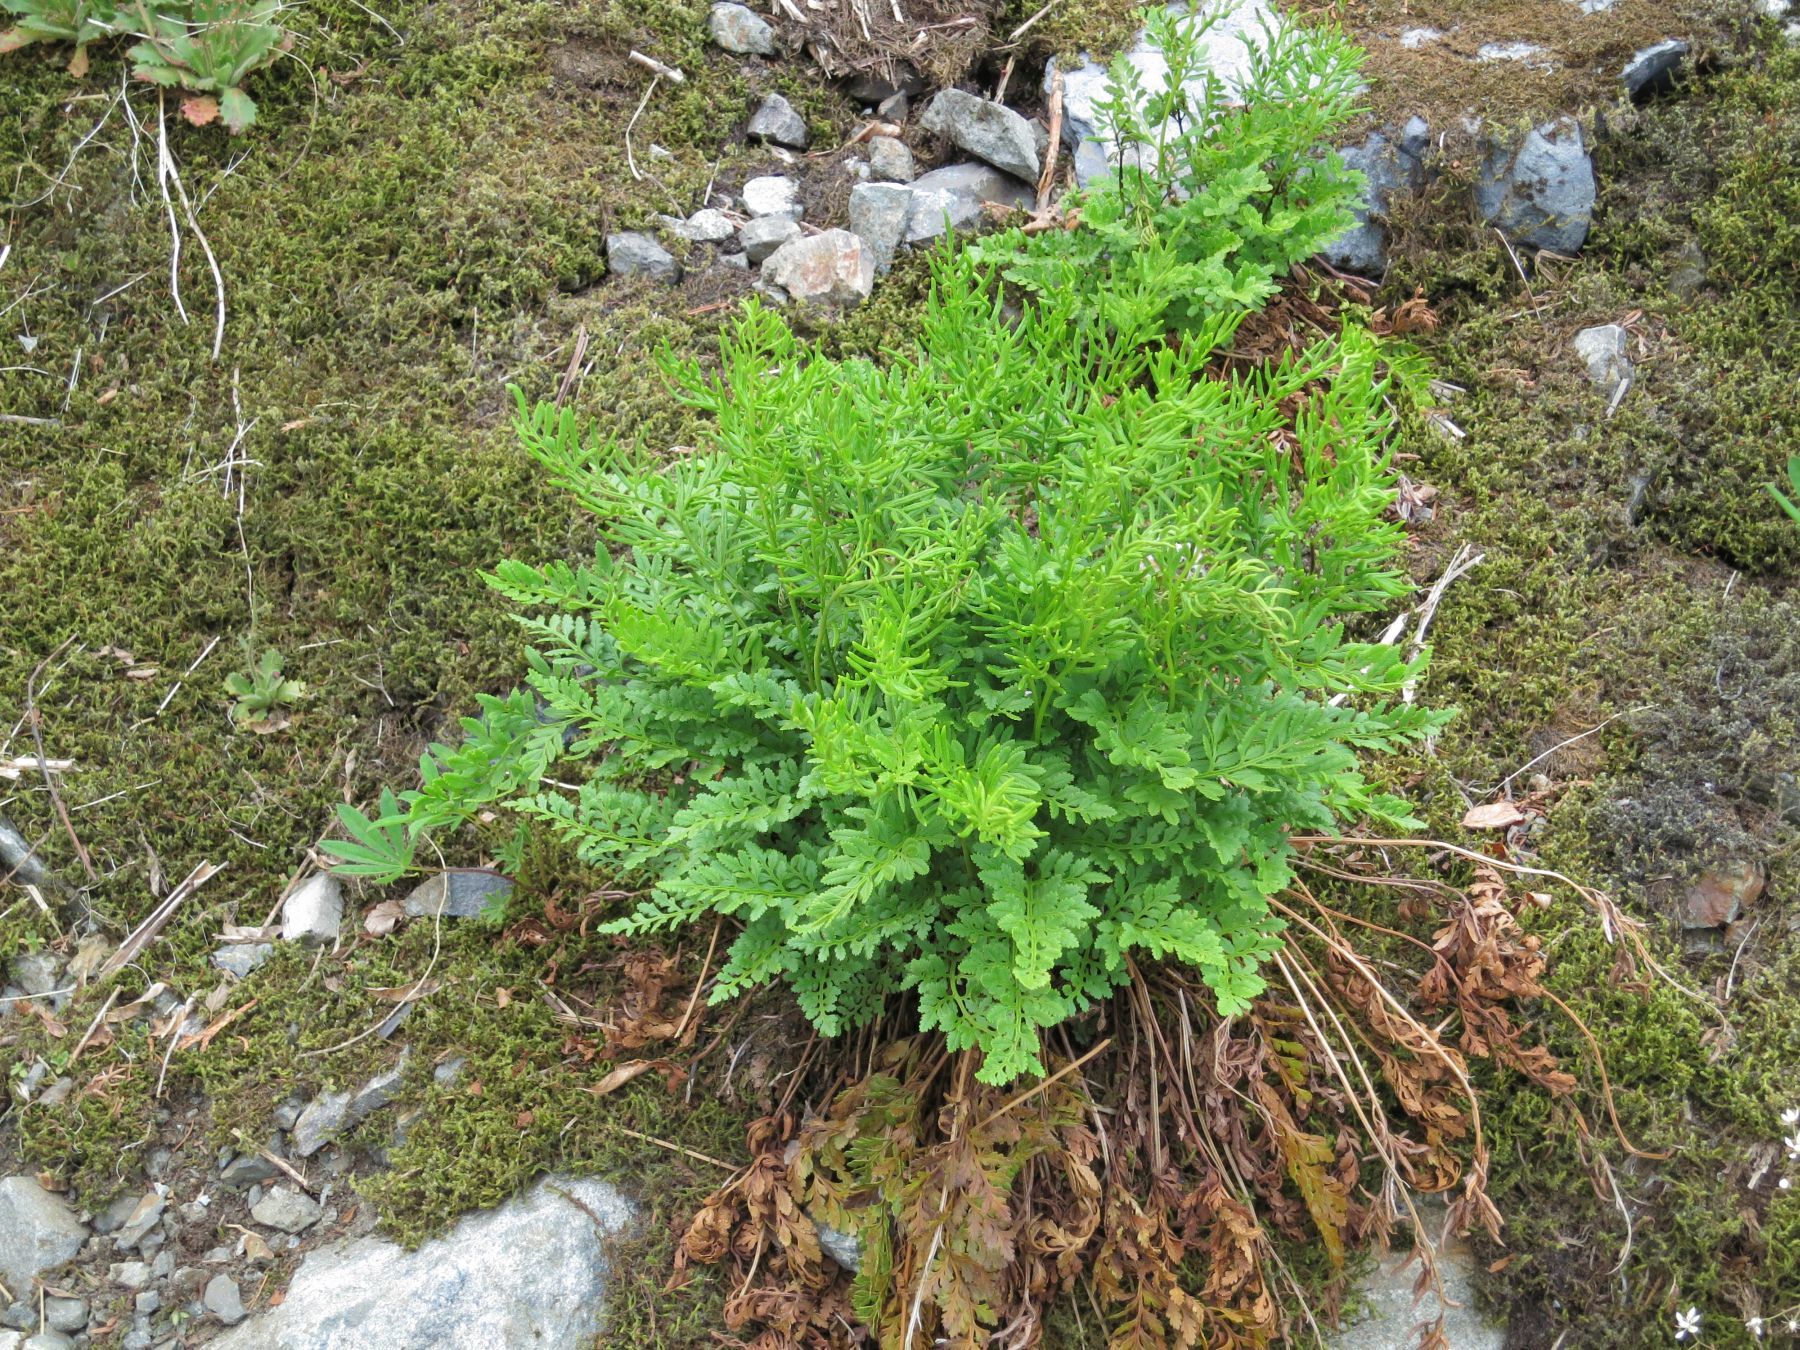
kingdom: Plantae
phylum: Tracheophyta
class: Polypodiopsida
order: Polypodiales
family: Pteridaceae
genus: Cryptogramma
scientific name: Cryptogramma acrostichoides
